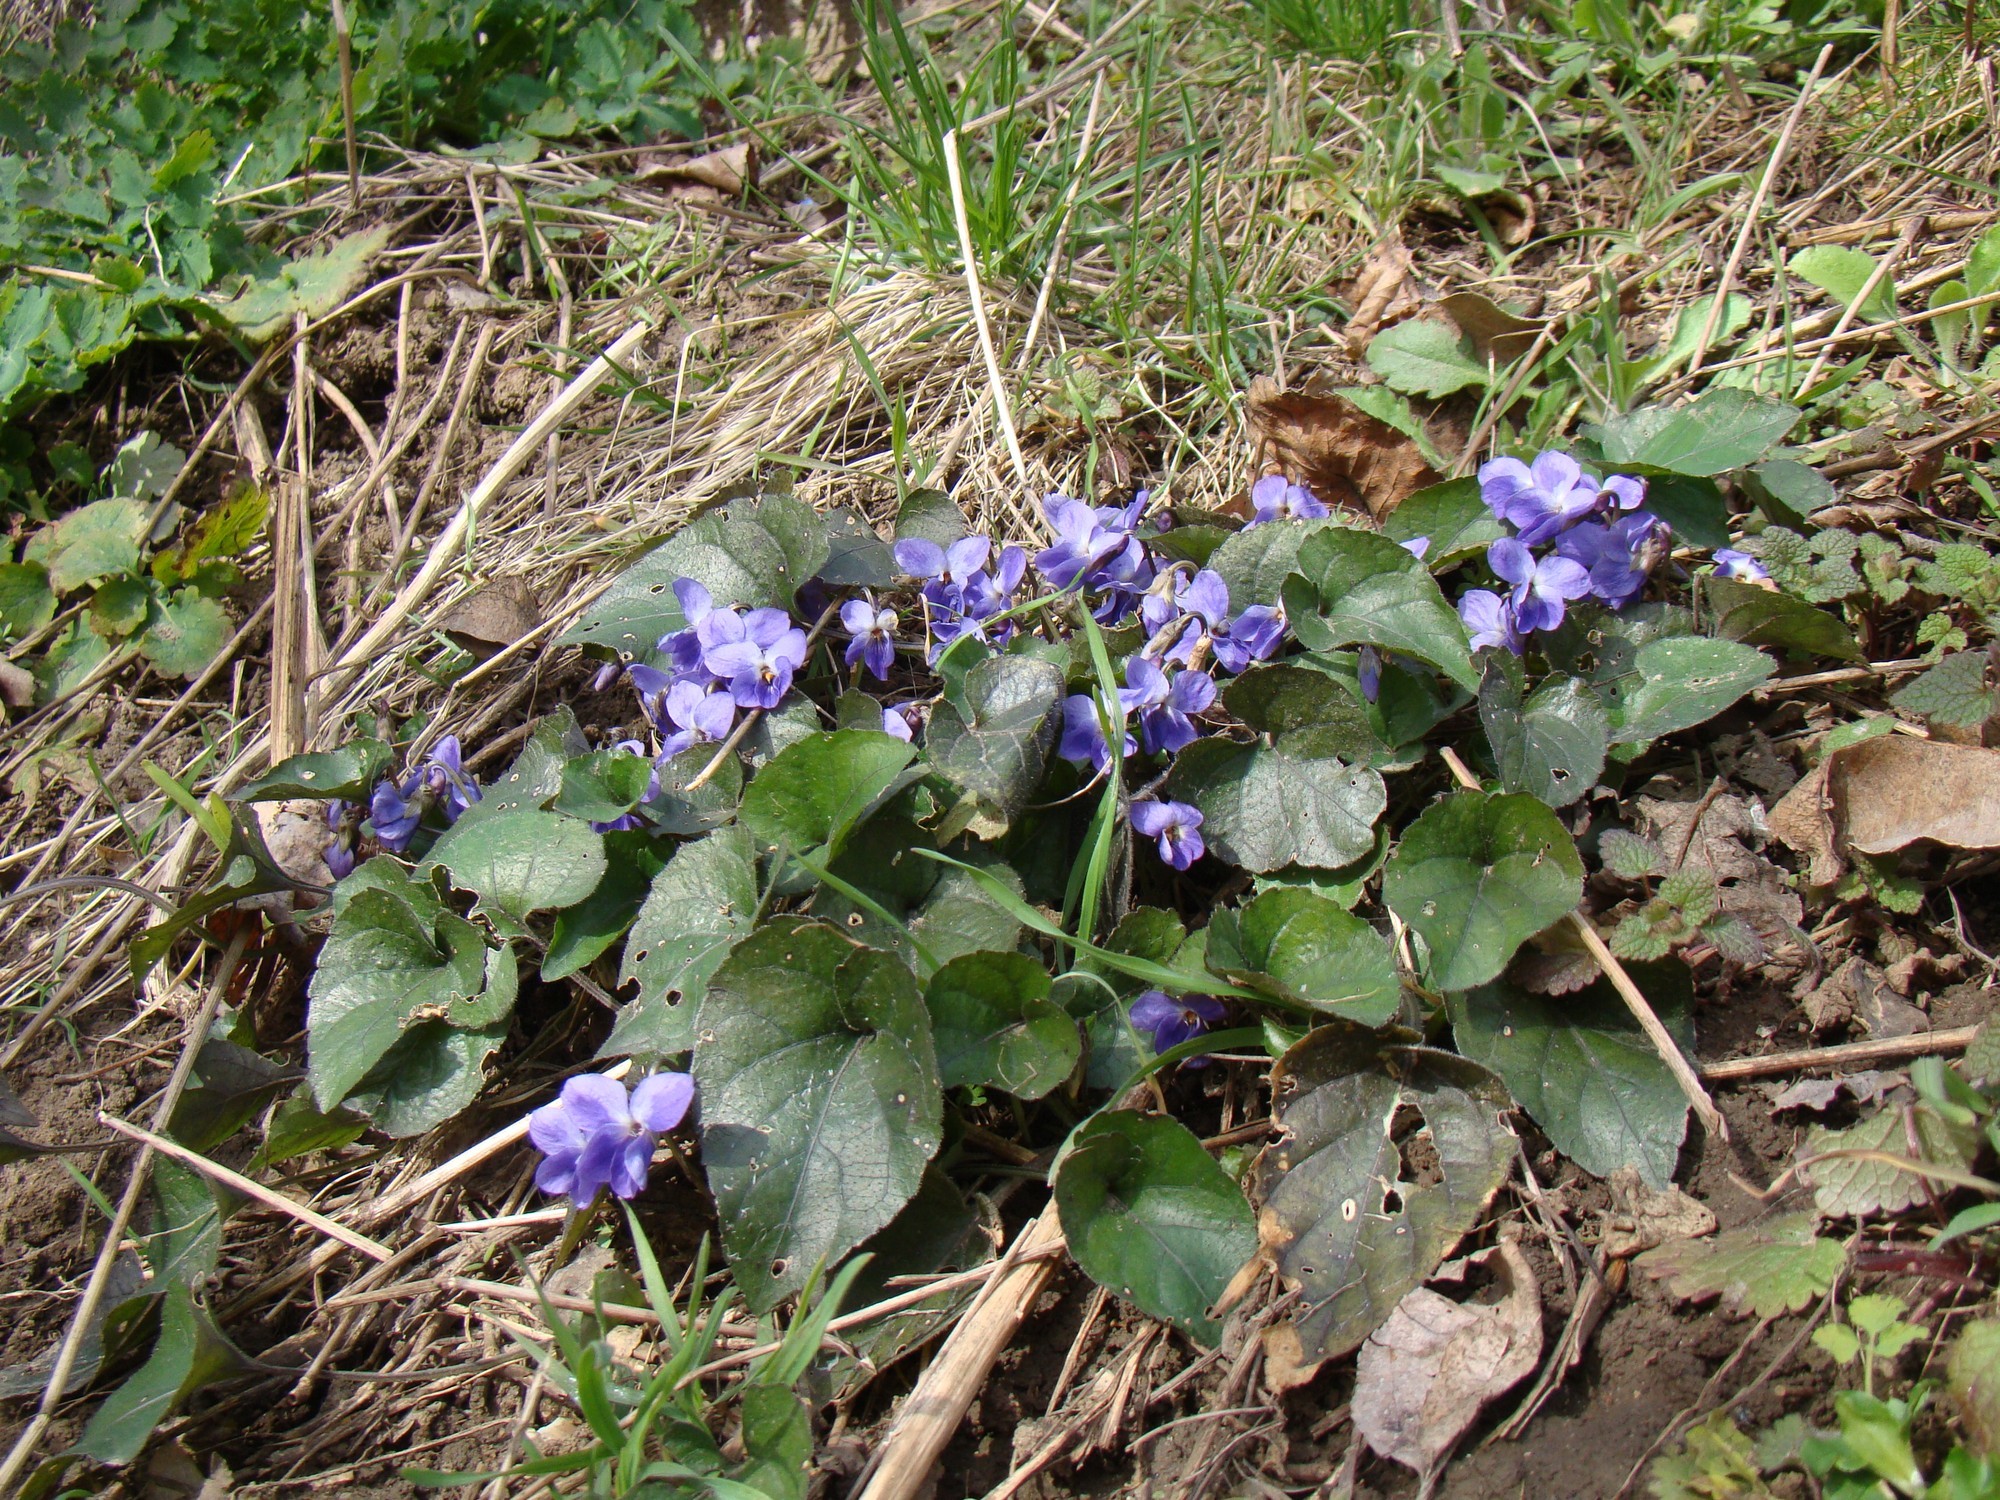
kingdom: Plantae
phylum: Tracheophyta
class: Magnoliopsida
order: Malpighiales
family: Violaceae
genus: Viola
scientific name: Viola alba
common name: White violet
